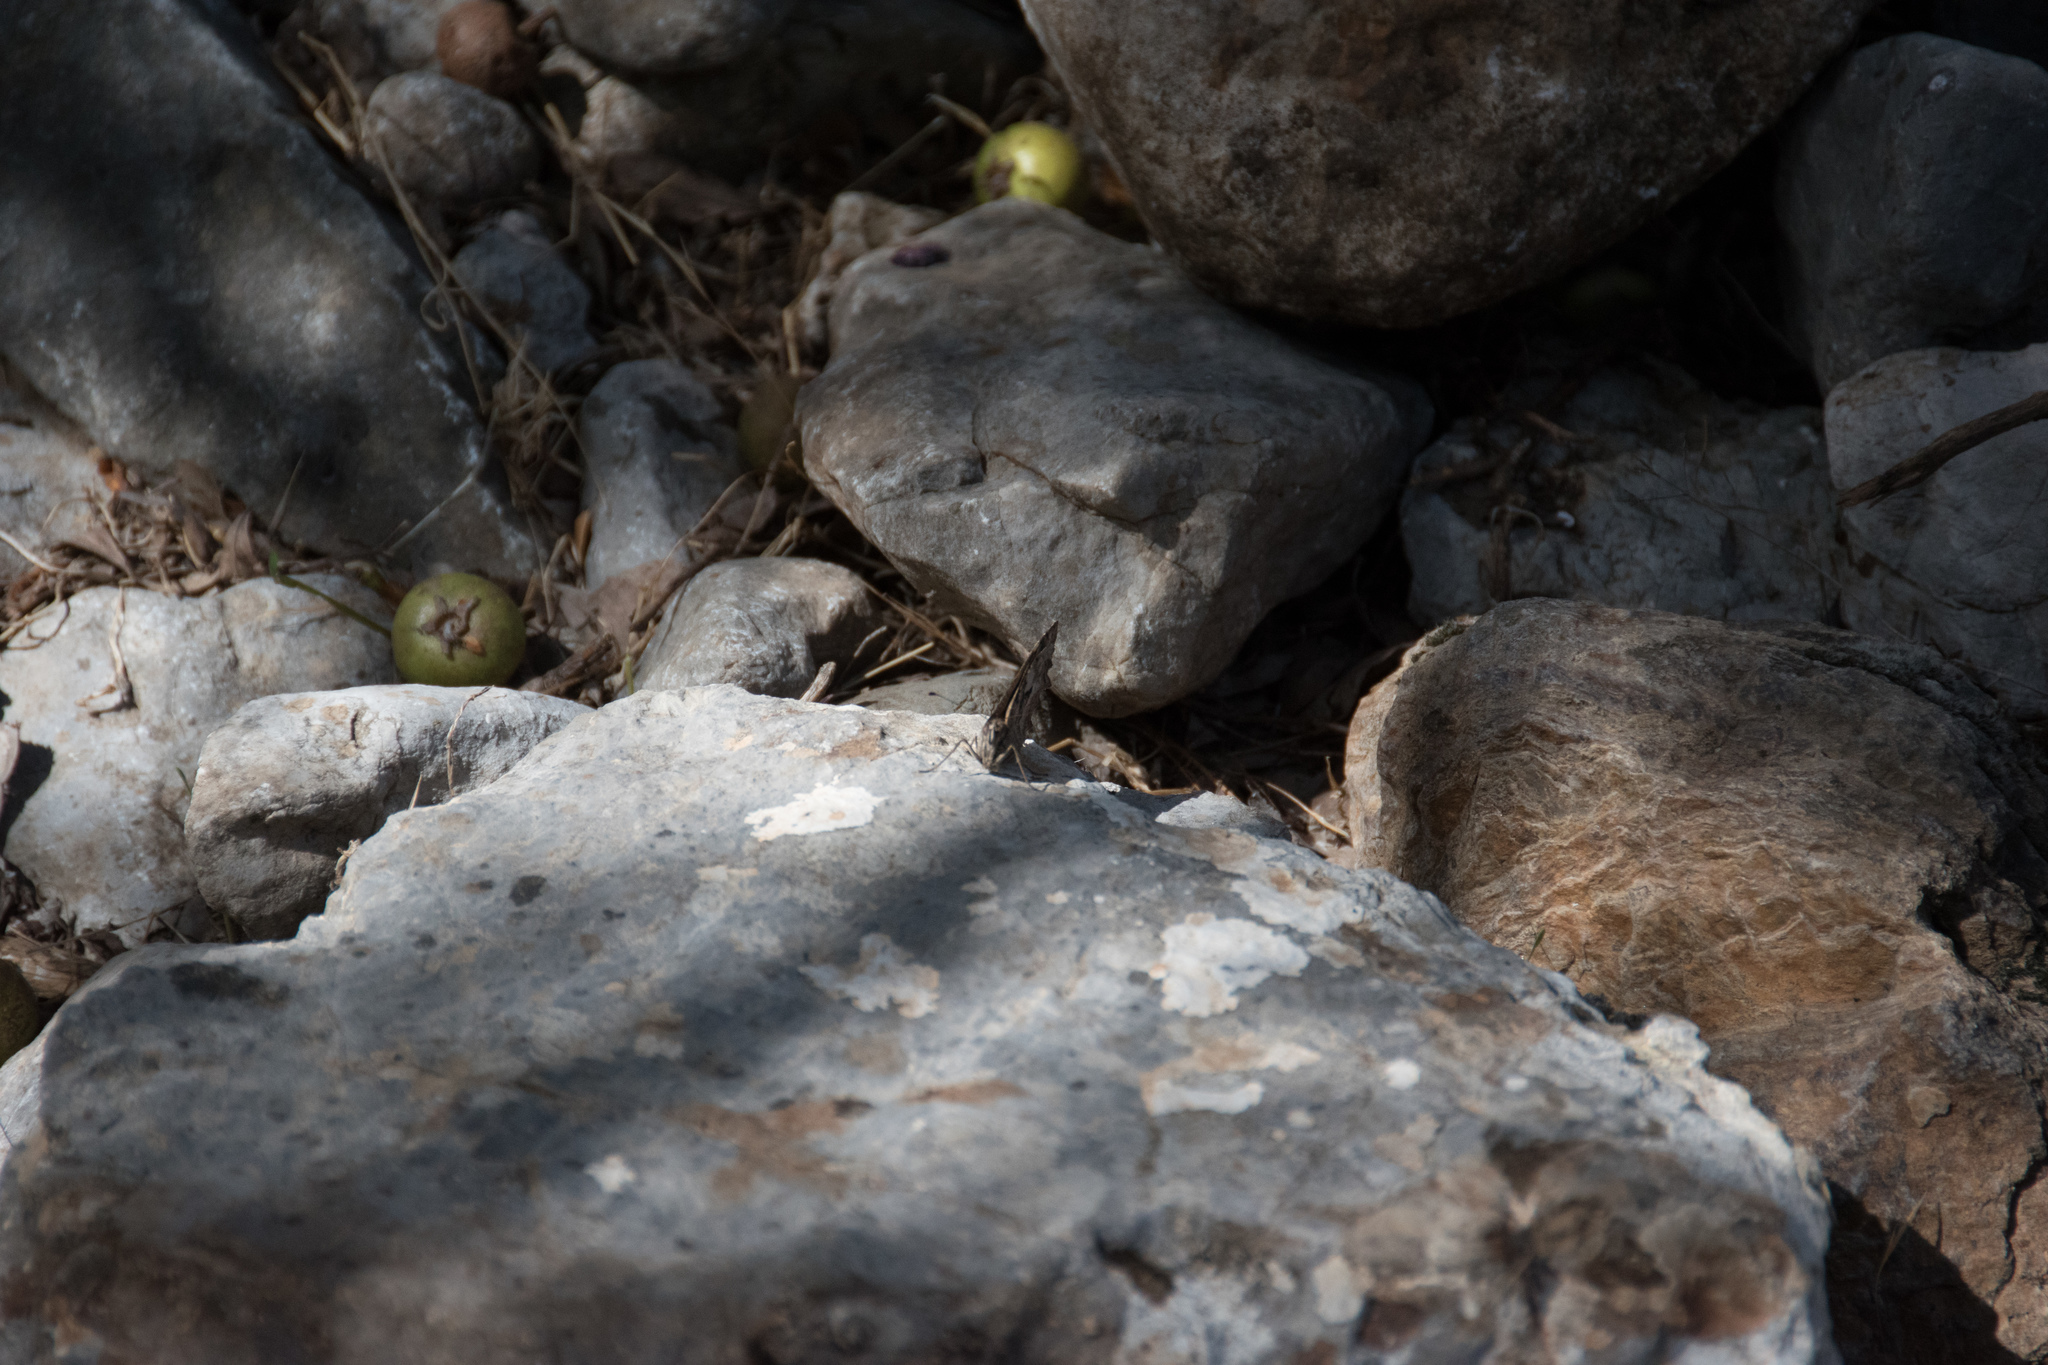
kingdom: Animalia
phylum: Arthropoda
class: Insecta
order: Lepidoptera
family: Nymphalidae
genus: Hipparchia
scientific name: Hipparchia cretica
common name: Cretan grayling
